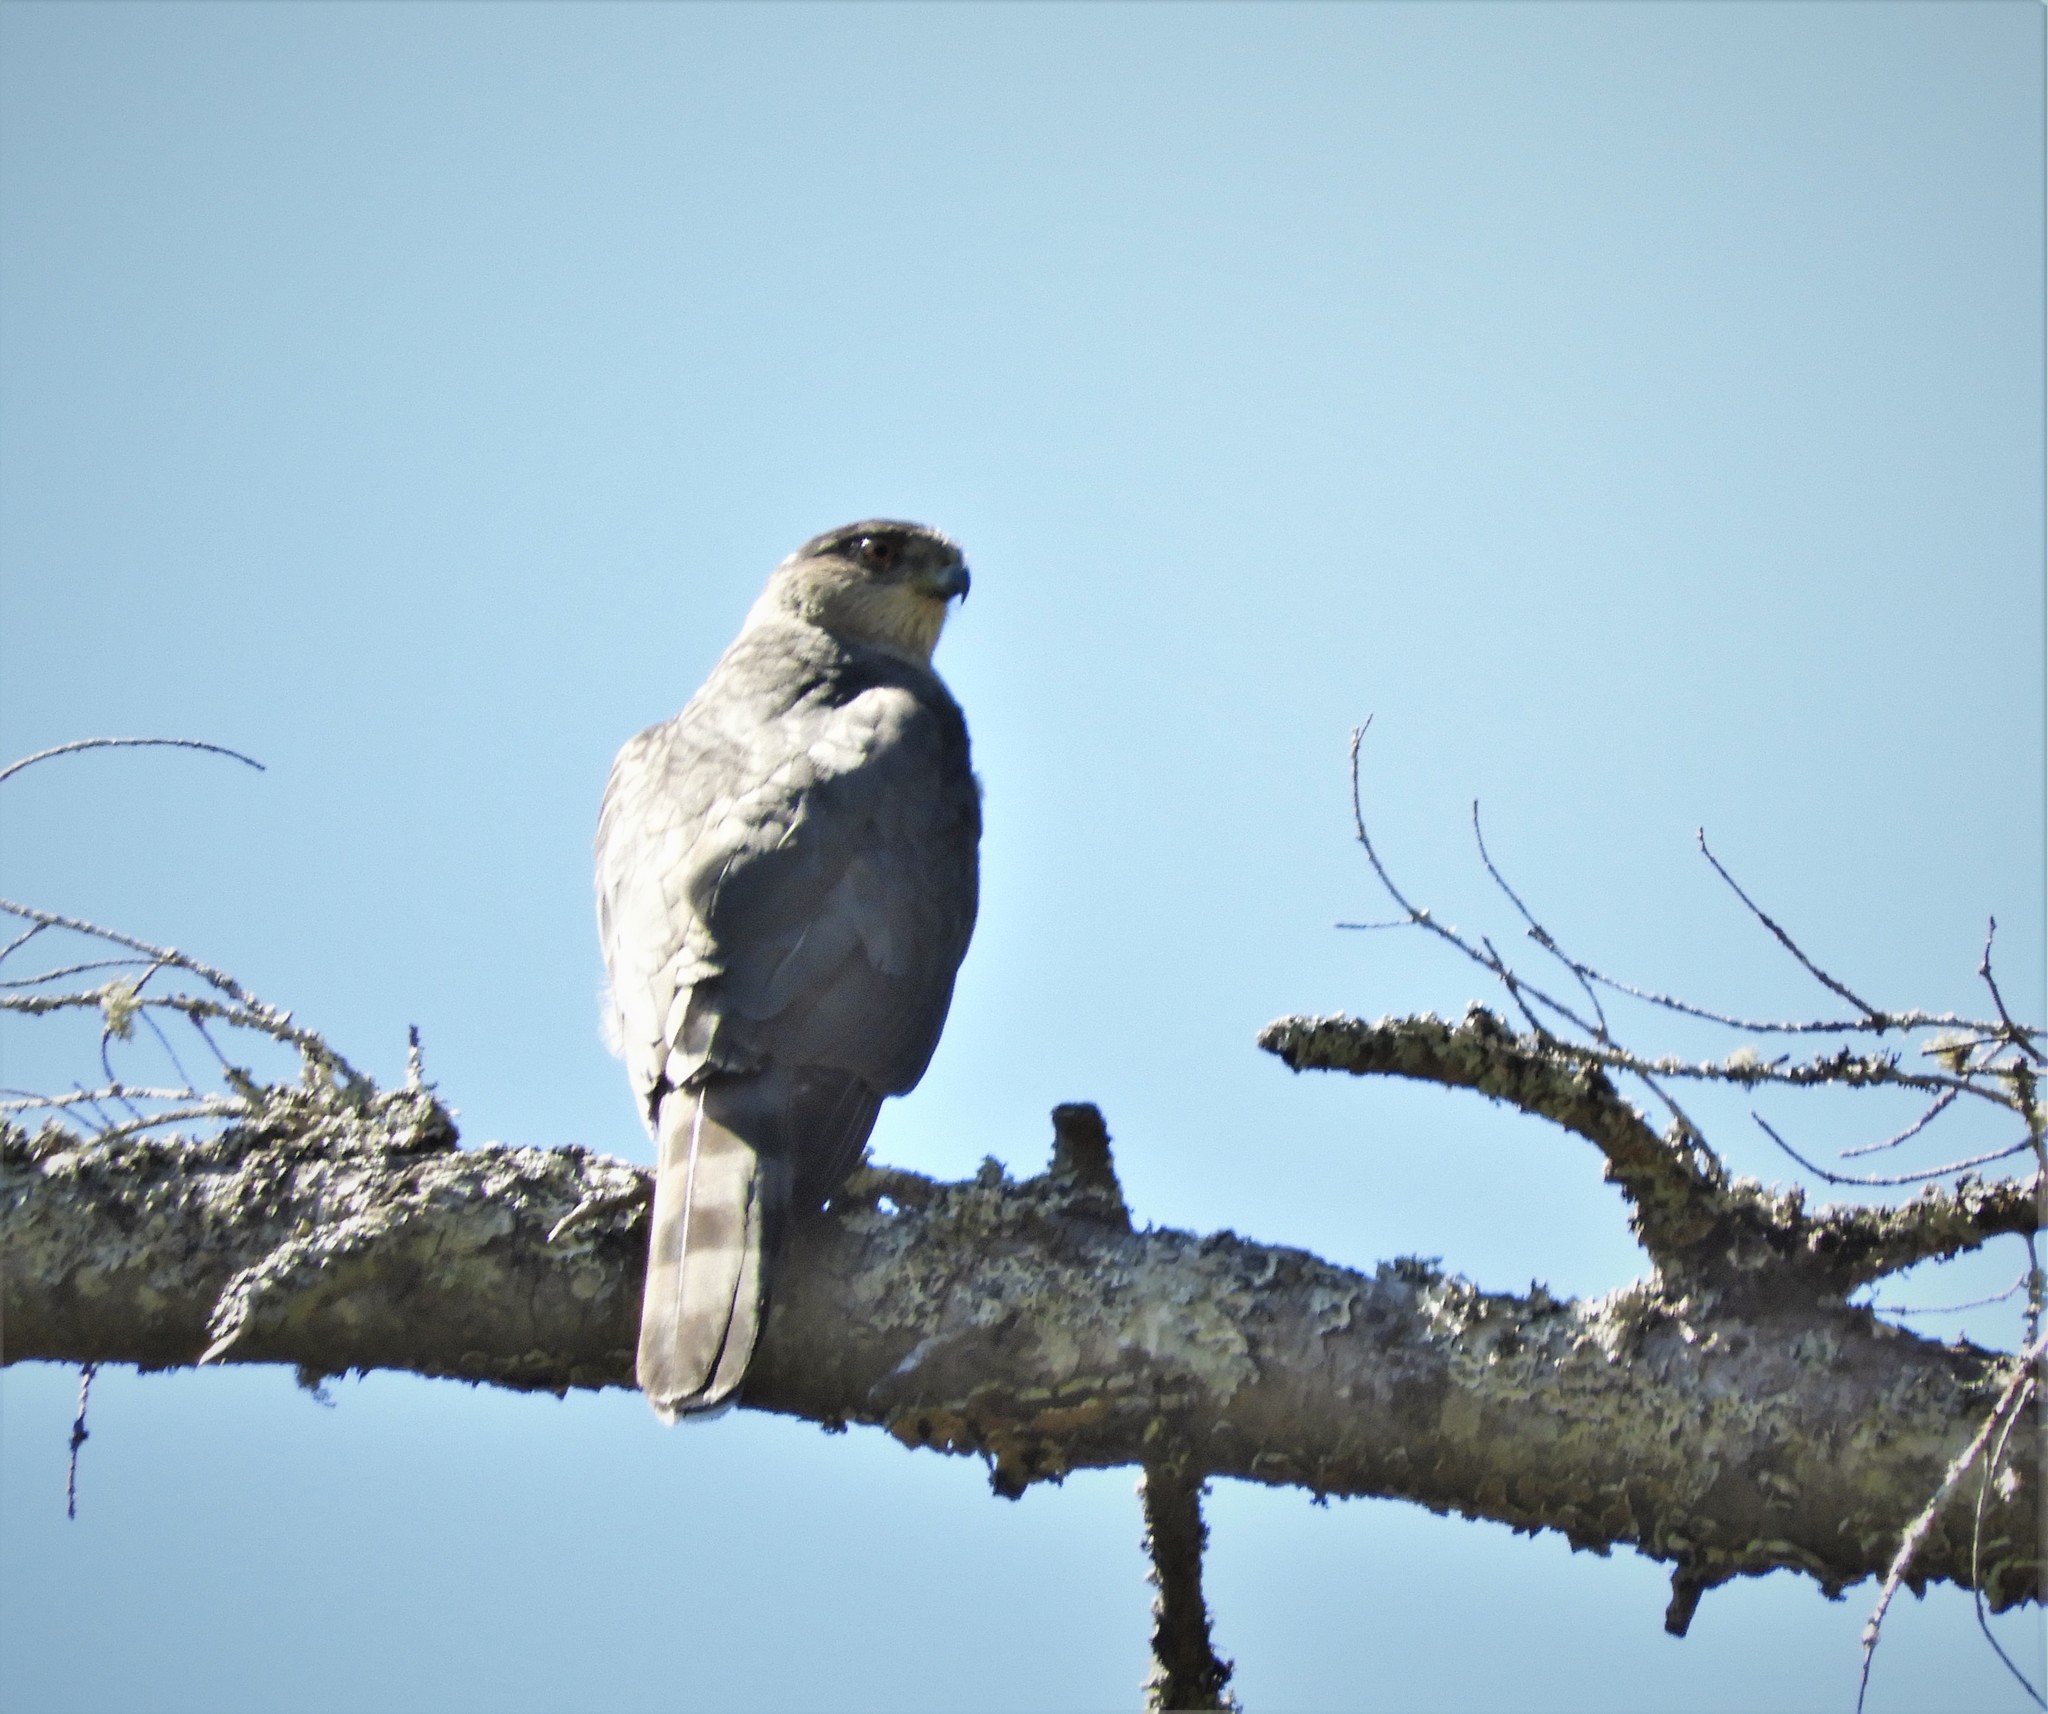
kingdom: Animalia
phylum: Chordata
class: Aves
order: Accipitriformes
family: Accipitridae
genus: Accipiter
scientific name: Accipiter cooperii
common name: Cooper's hawk
